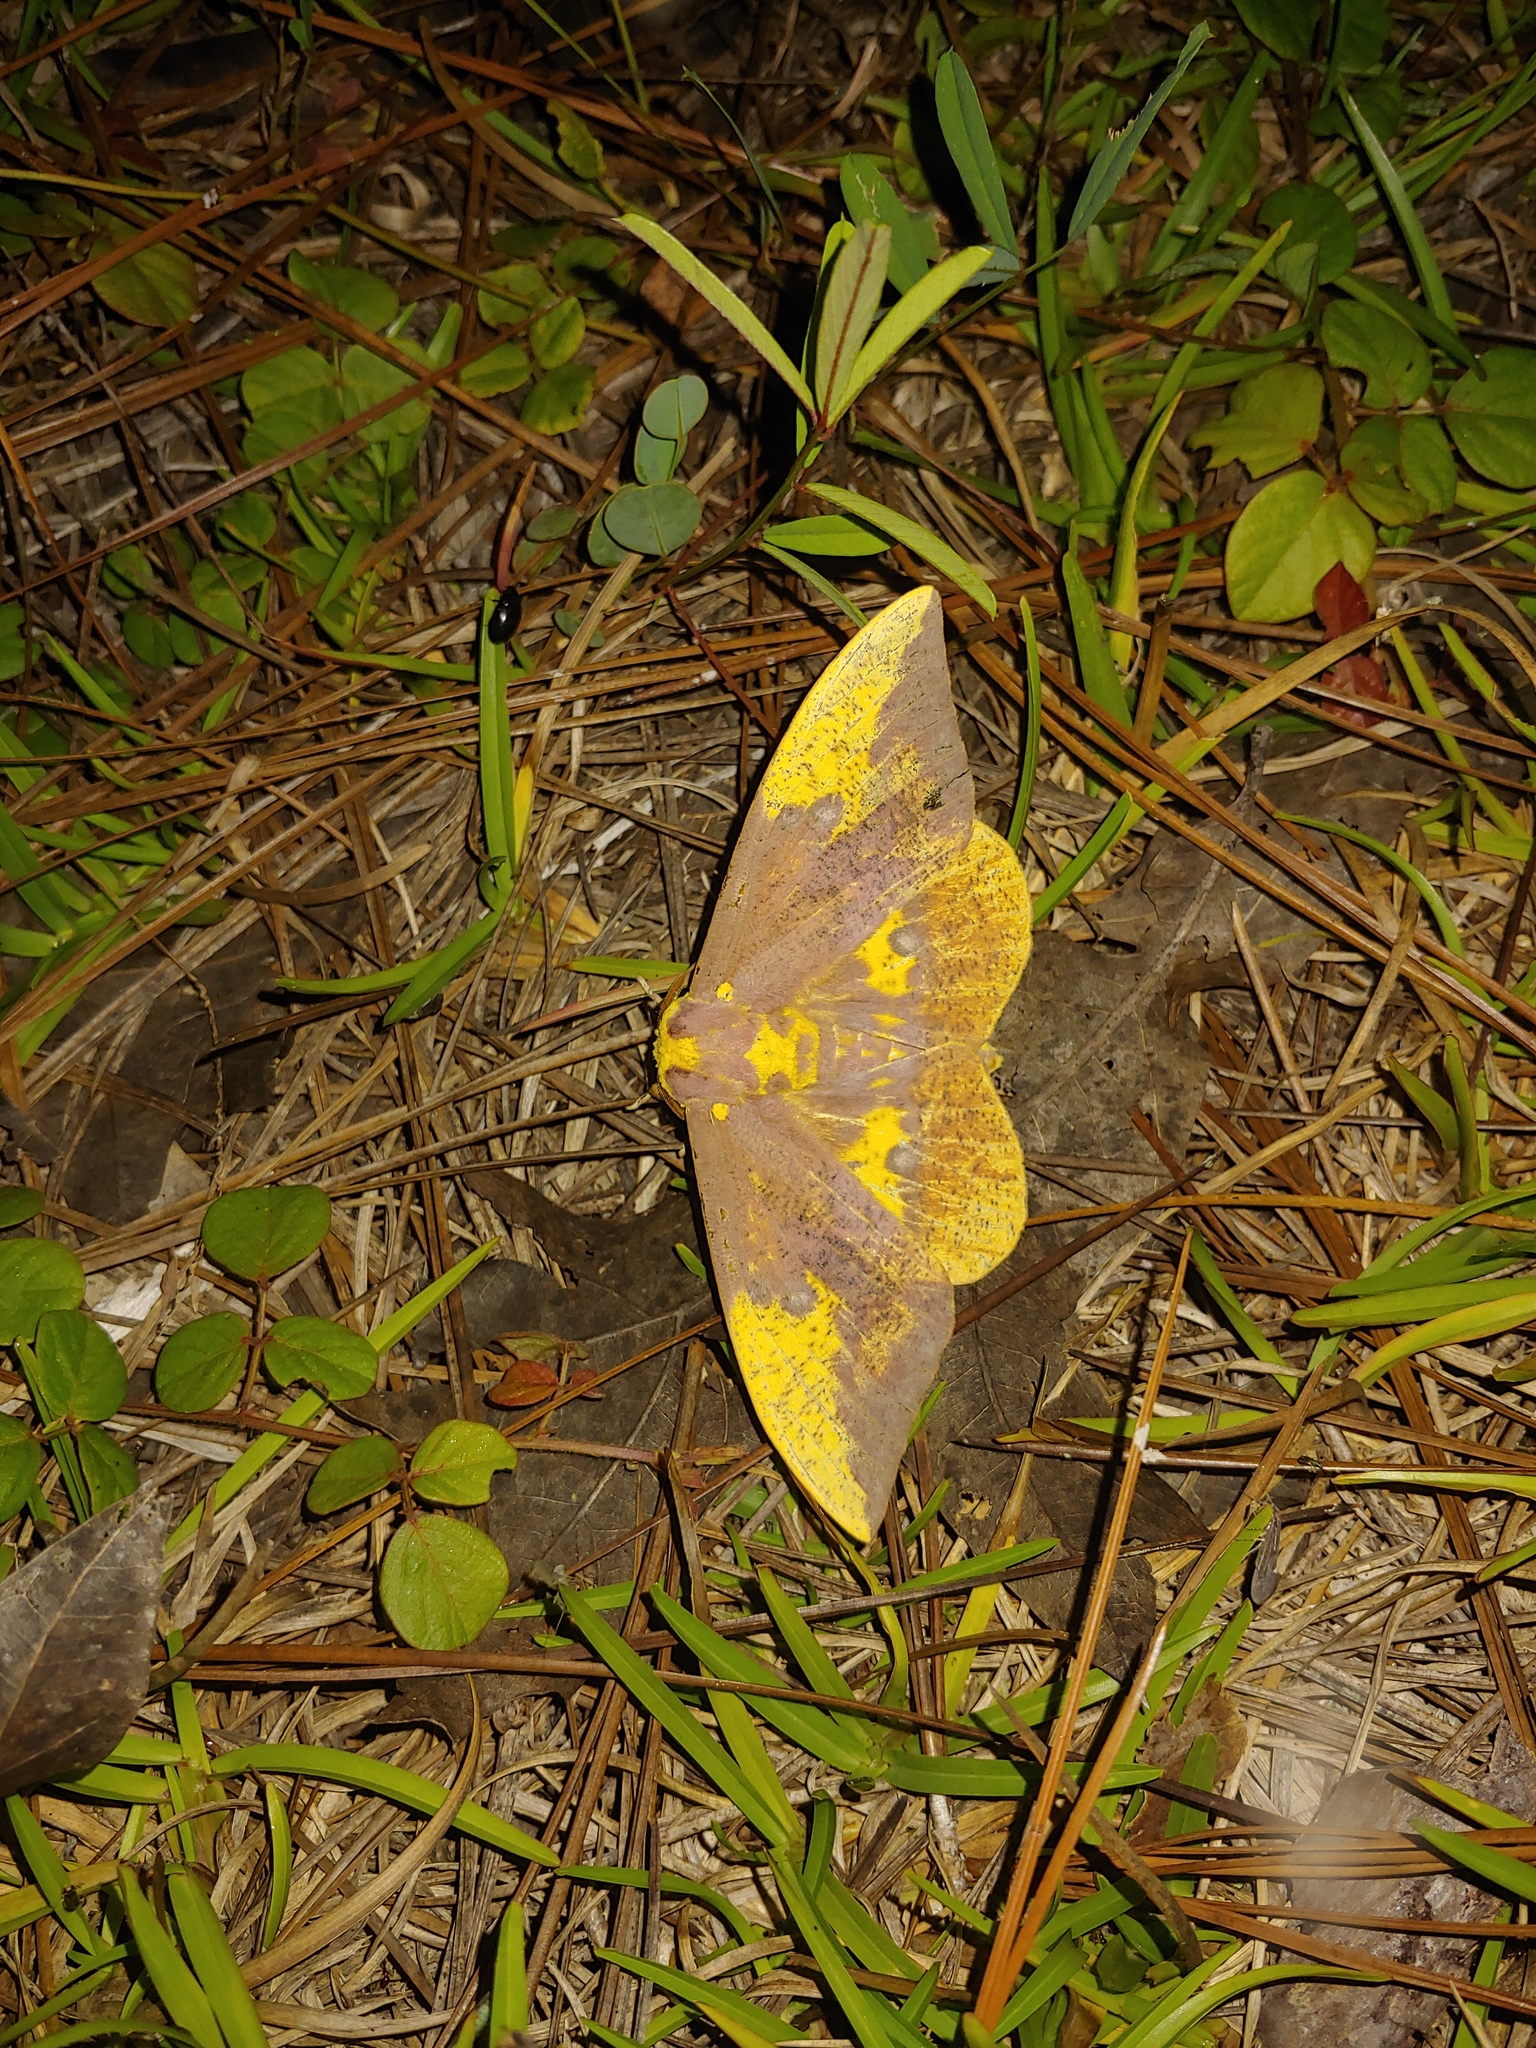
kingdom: Animalia
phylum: Arthropoda
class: Insecta
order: Lepidoptera
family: Saturniidae
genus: Eacles
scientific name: Eacles imperialis
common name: Imperial moth
